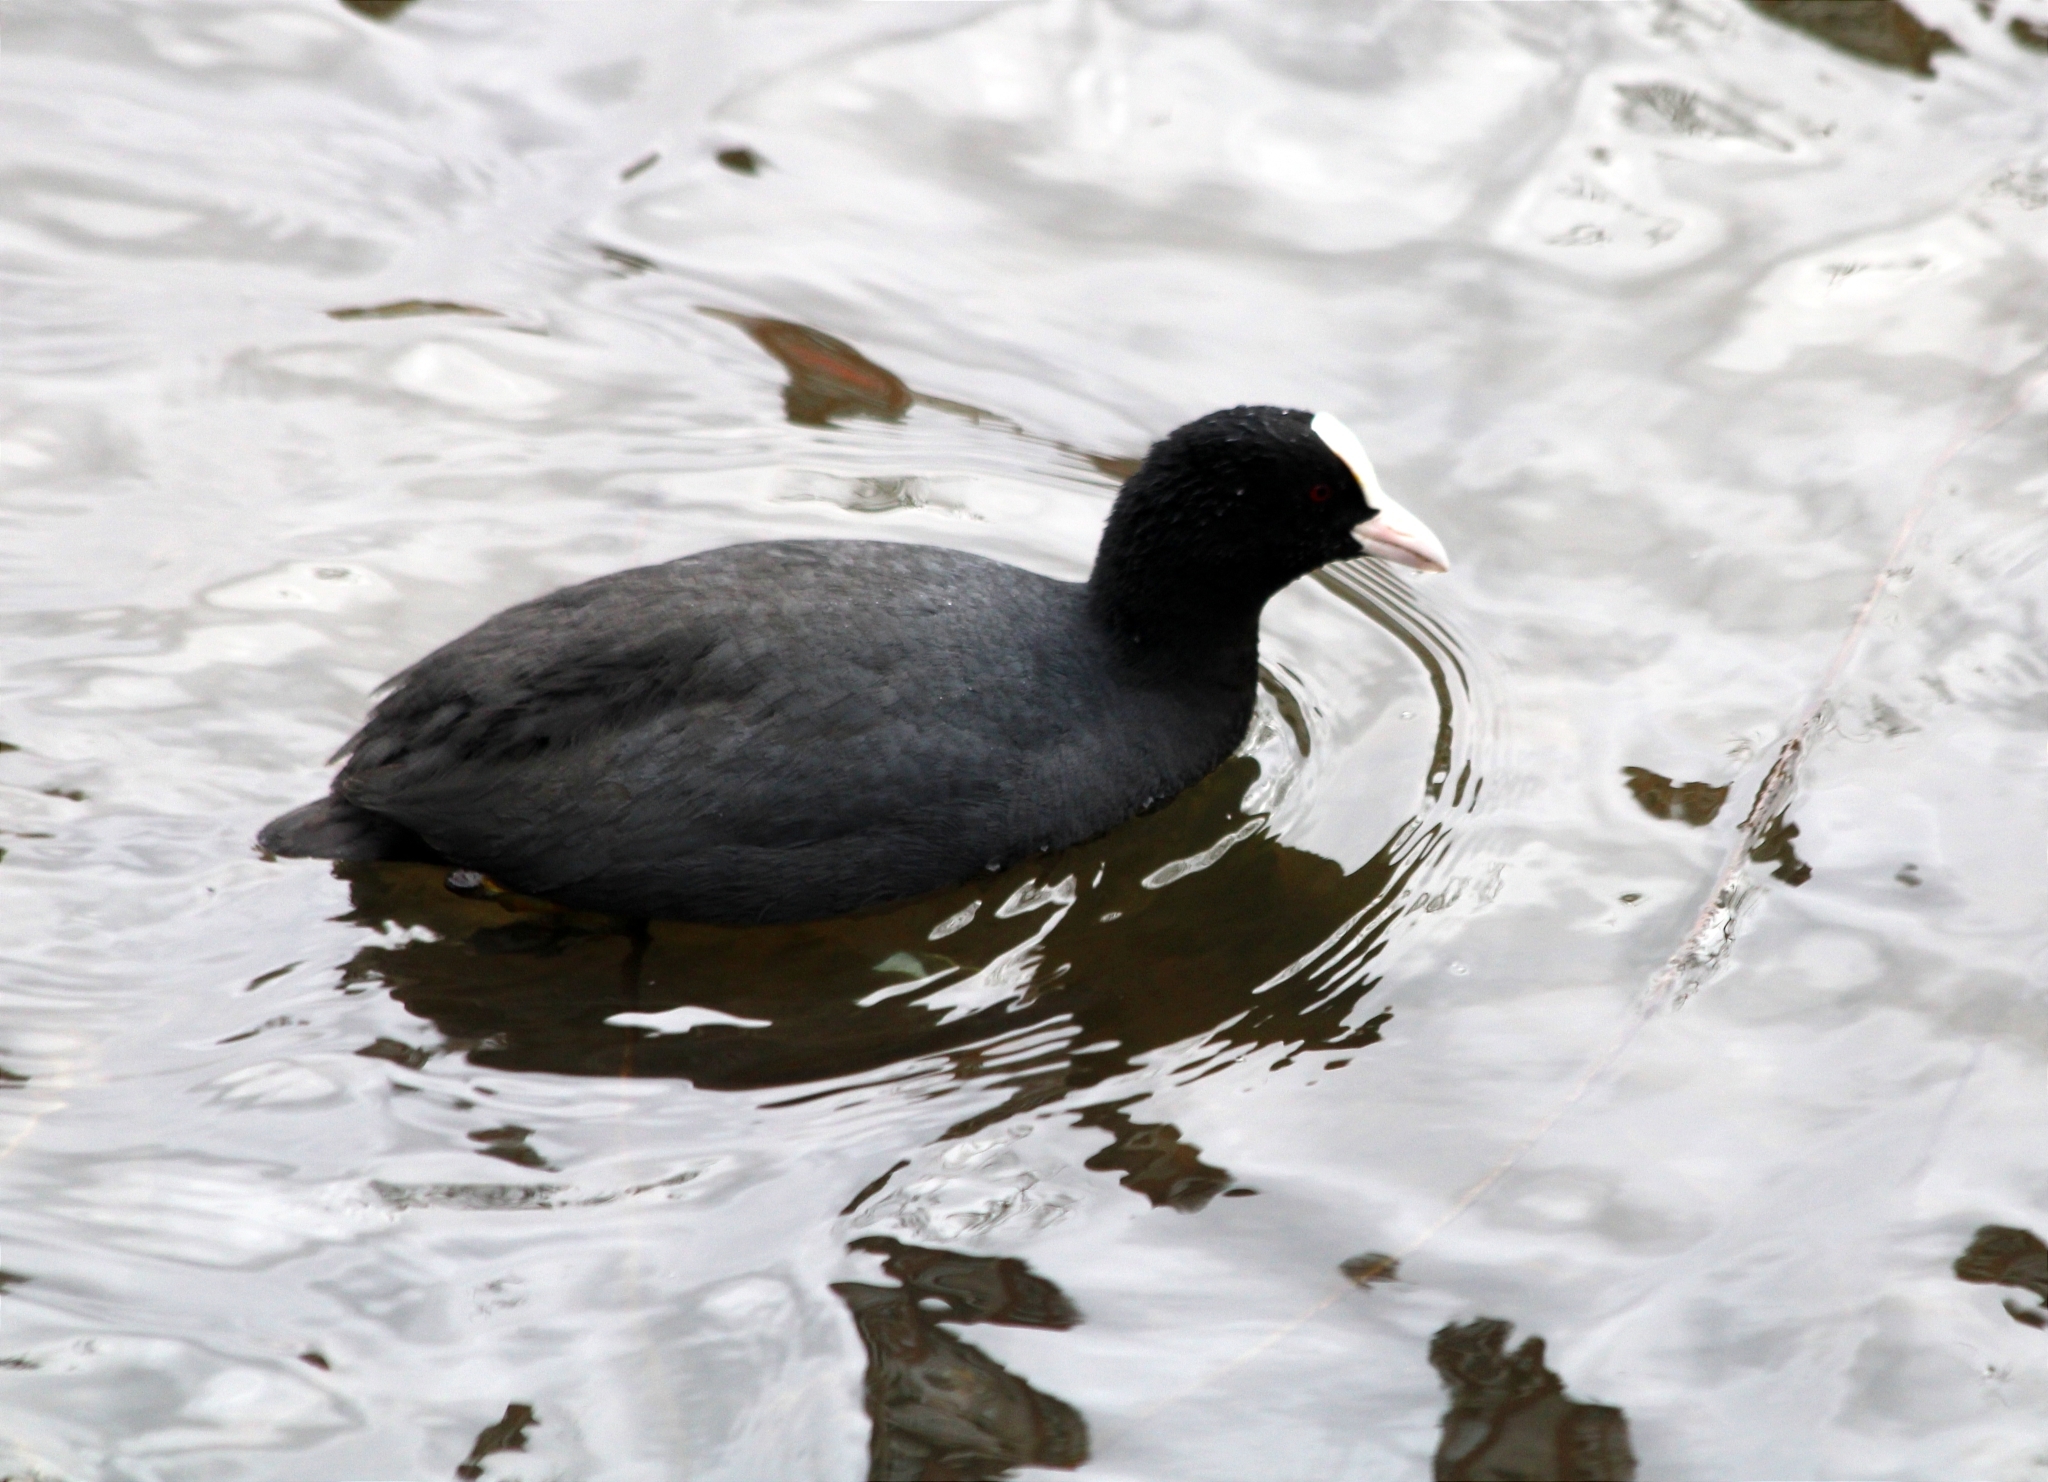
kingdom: Animalia
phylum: Chordata
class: Aves
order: Gruiformes
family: Rallidae
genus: Fulica
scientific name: Fulica atra
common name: Eurasian coot
